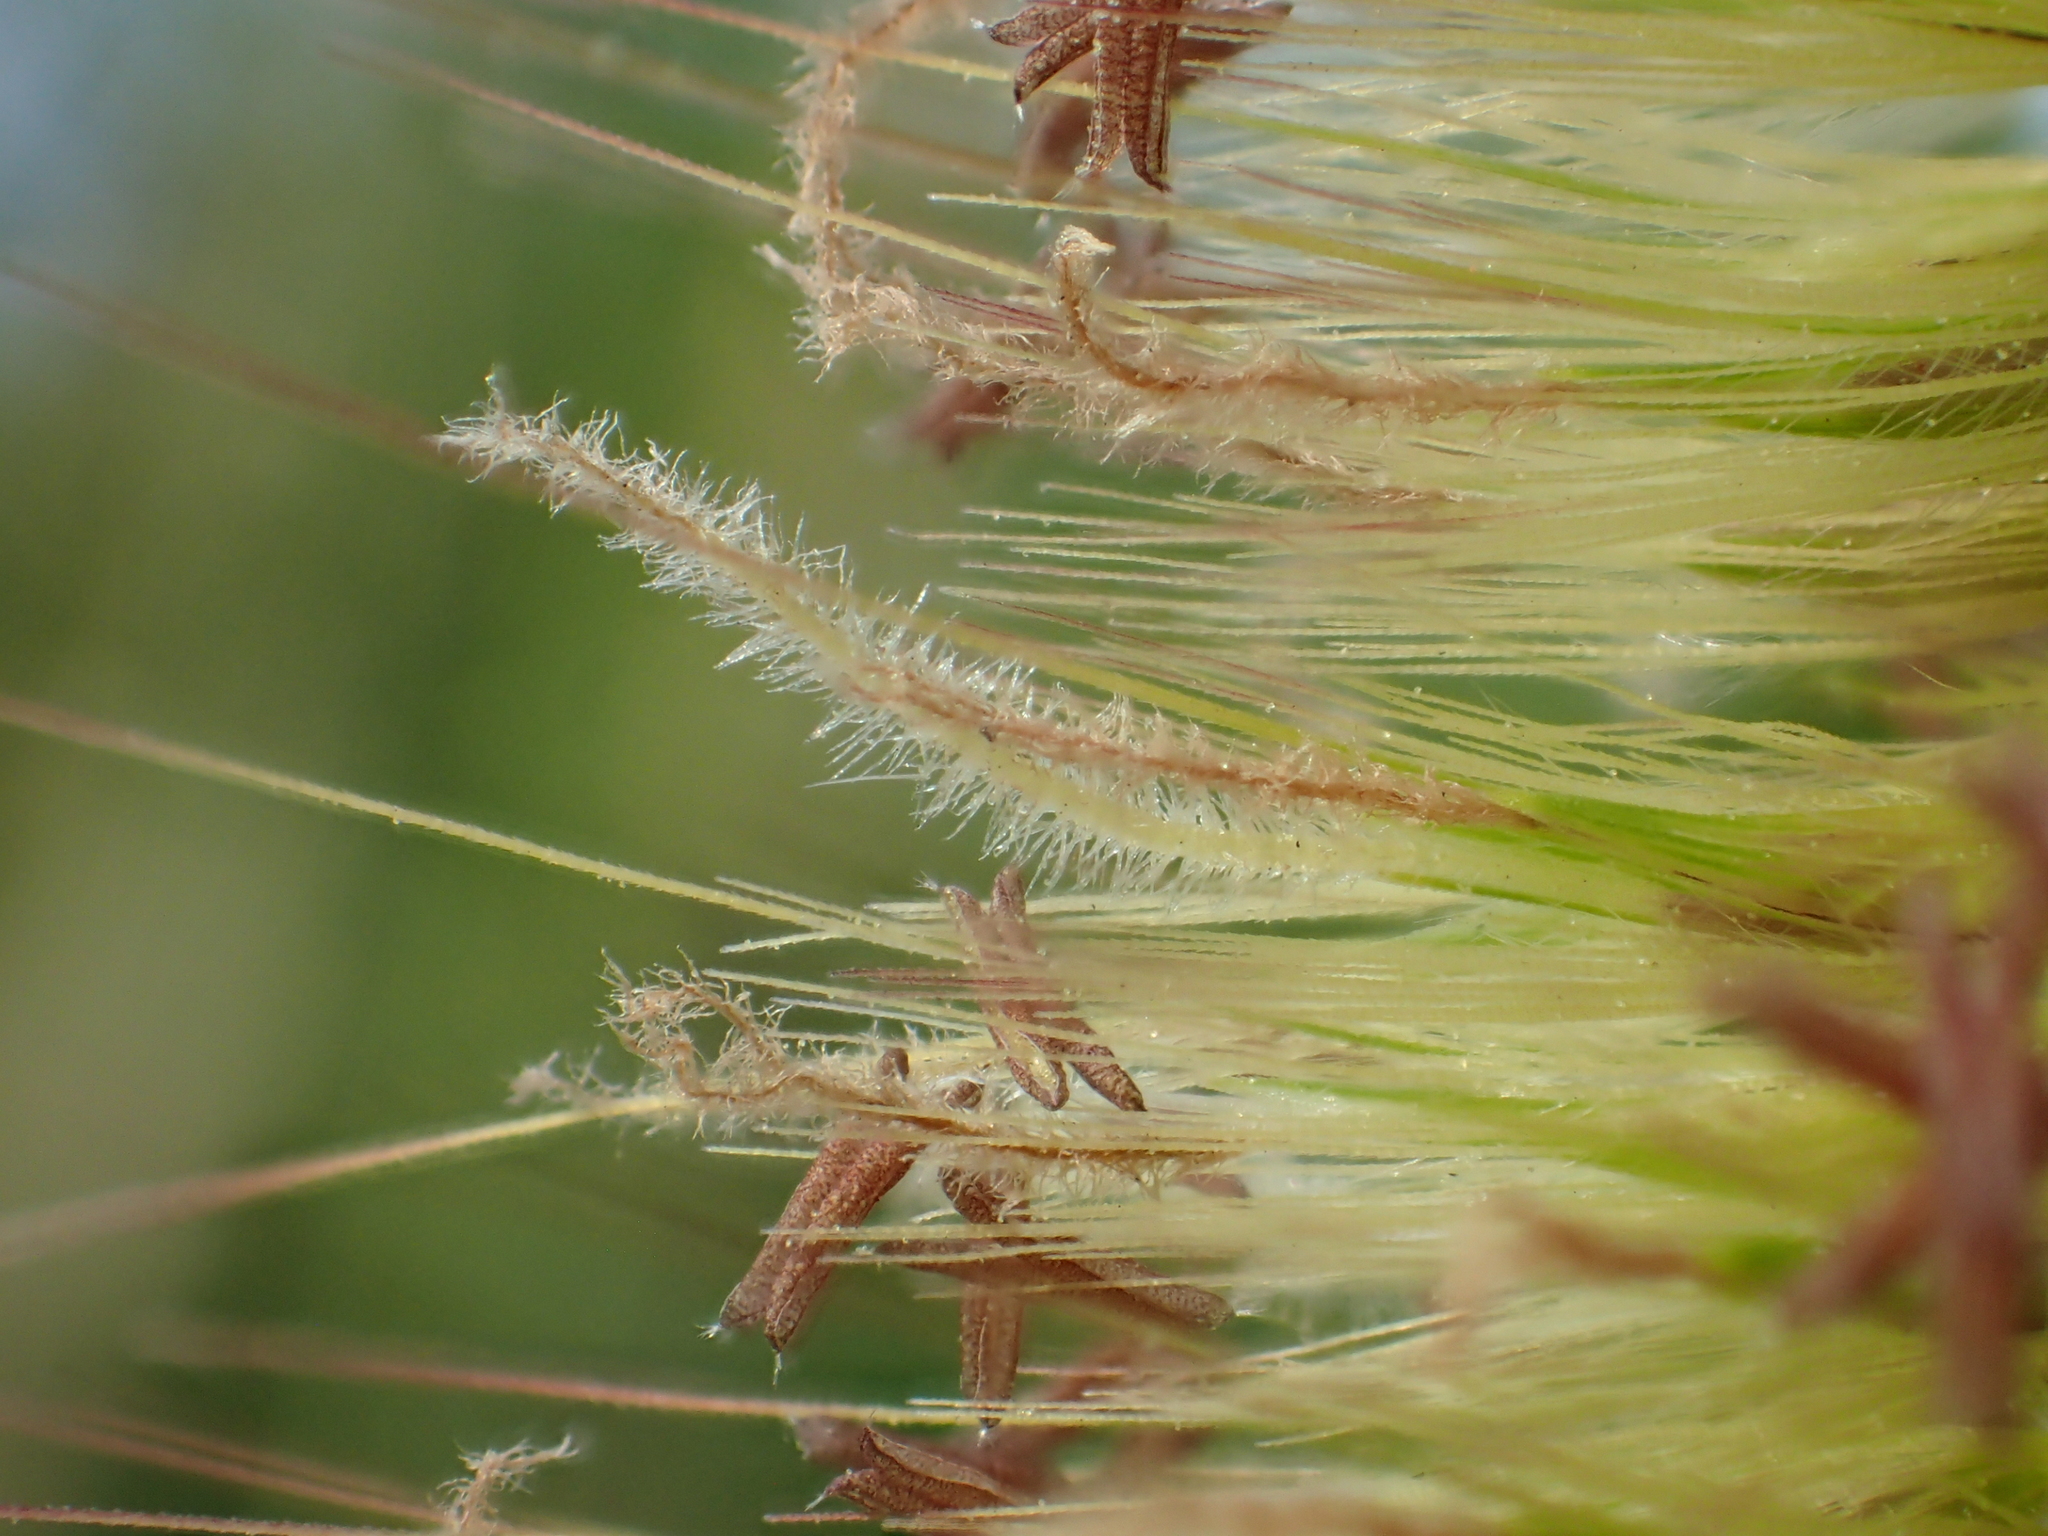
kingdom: Plantae
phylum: Tracheophyta
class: Liliopsida
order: Poales
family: Poaceae
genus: Cenchrus
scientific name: Cenchrus purpureus
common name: Elephant grass
